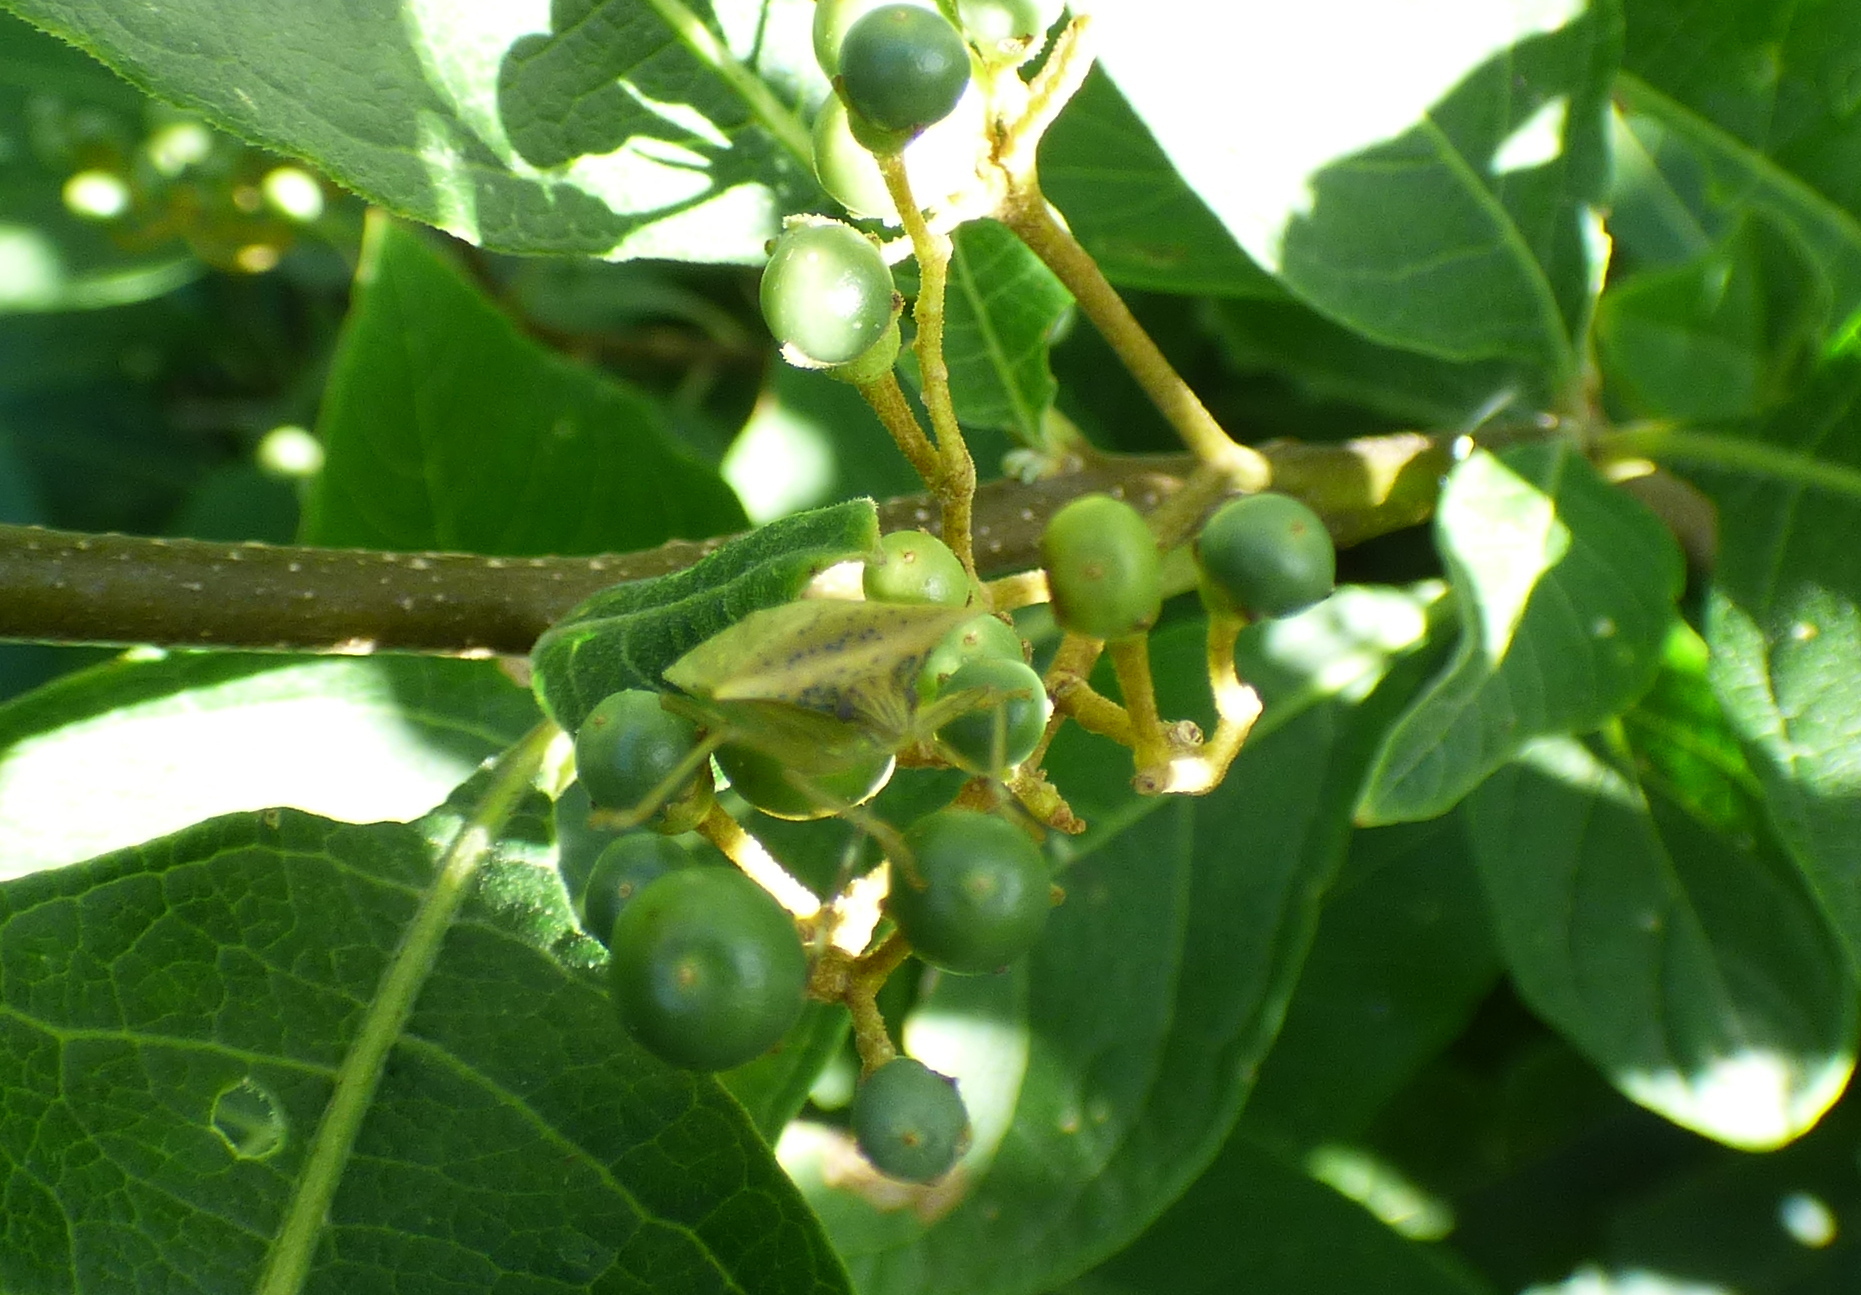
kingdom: Animalia
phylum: Arthropoda
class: Insecta
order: Hemiptera
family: Pentatomidae
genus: Arvelius
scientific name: Arvelius albopunctatus
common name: Tomato stink bug
